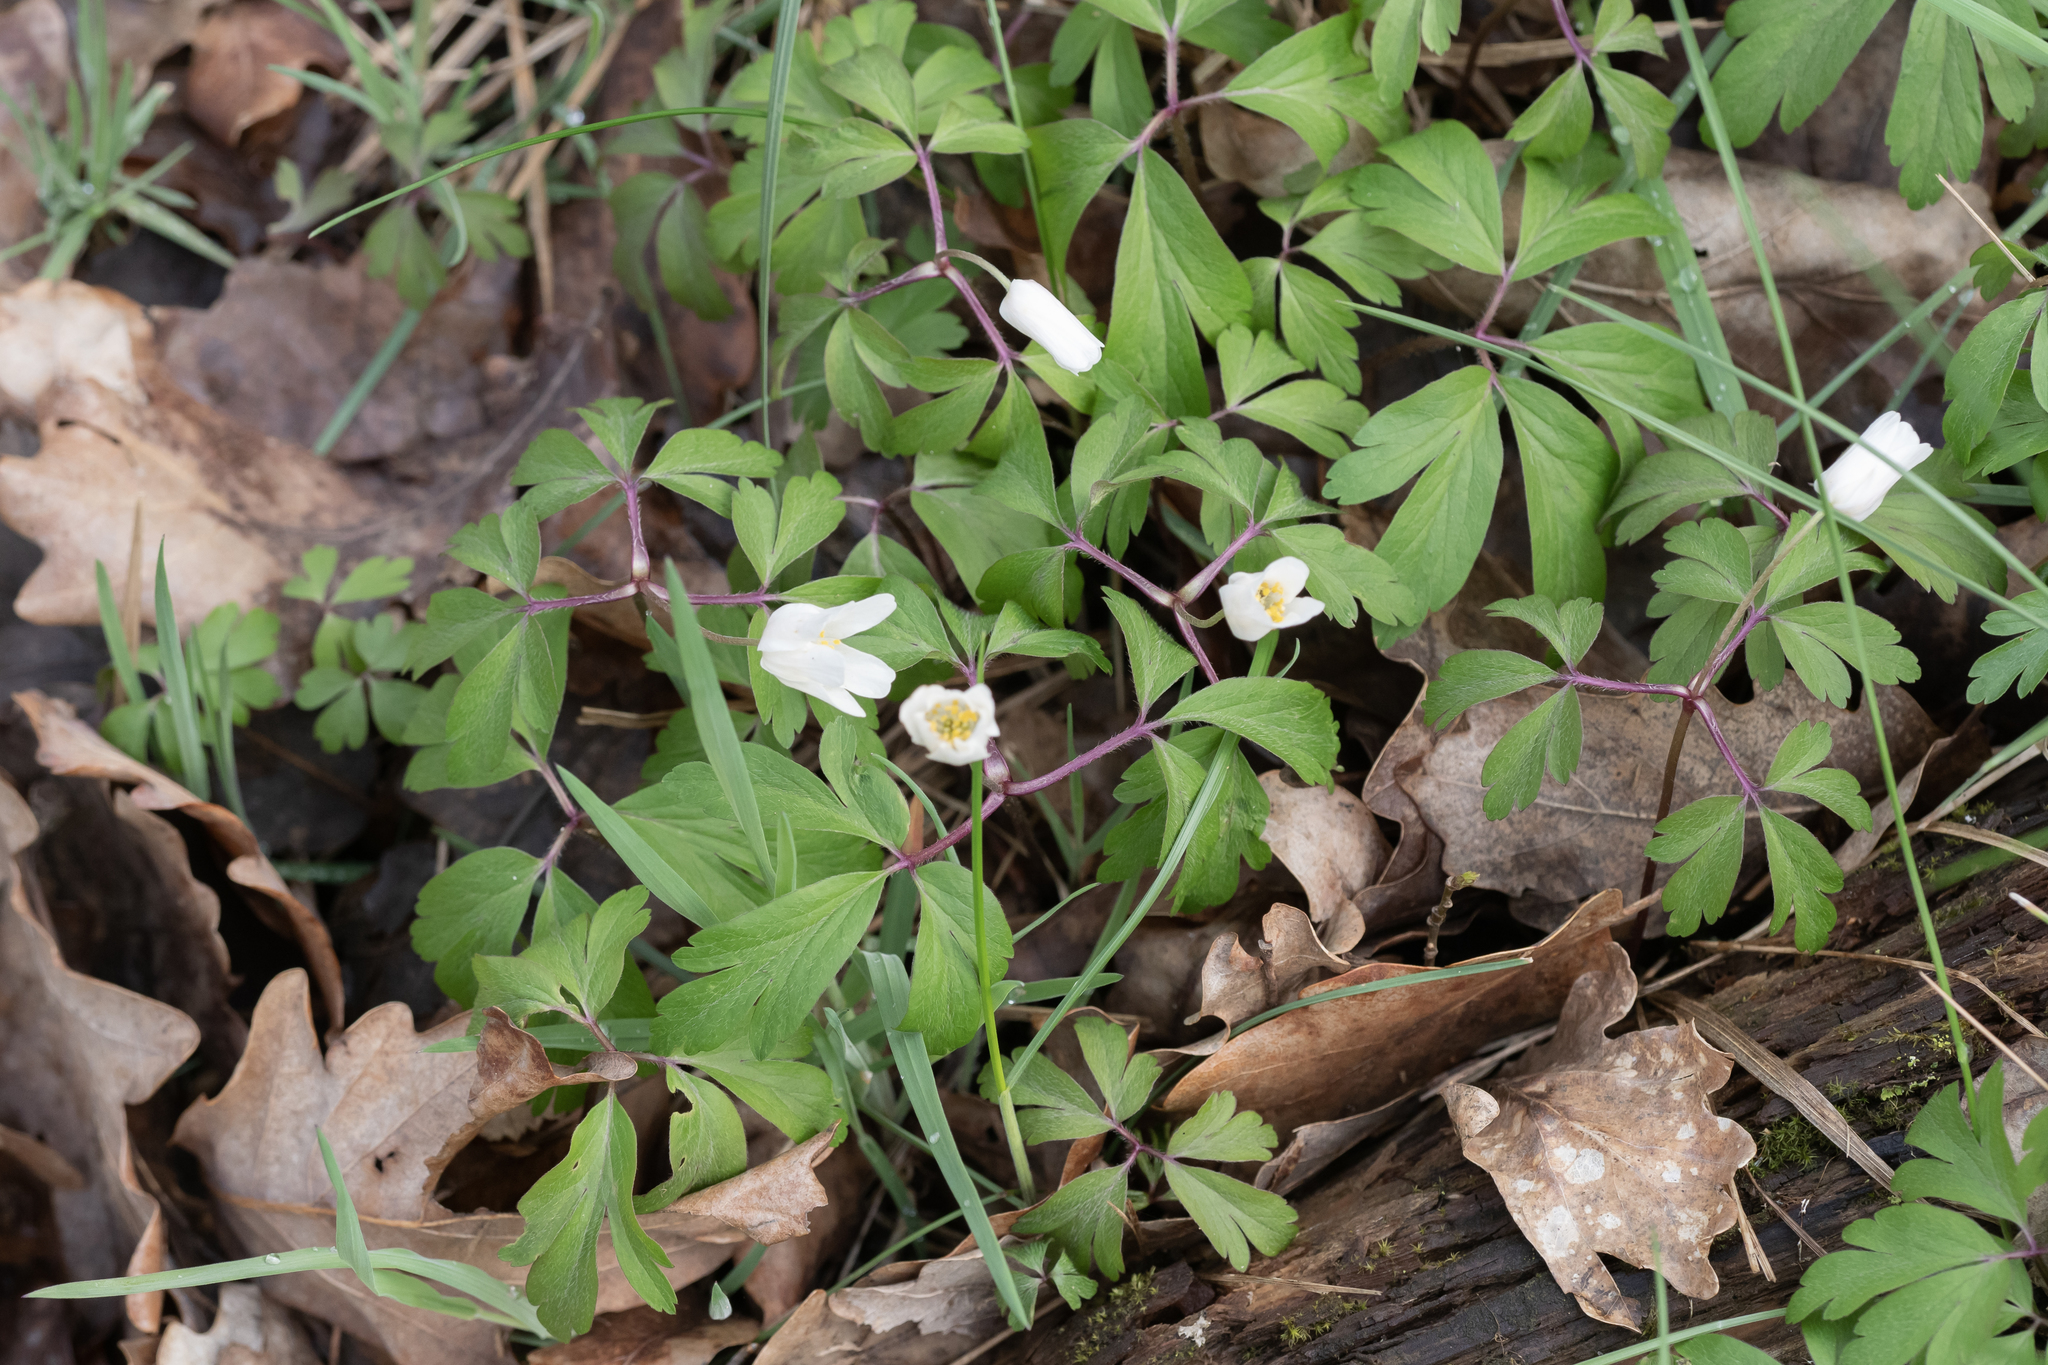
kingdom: Plantae
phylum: Tracheophyta
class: Magnoliopsida
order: Ranunculales
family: Ranunculaceae
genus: Anemone
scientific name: Anemone nemorosa
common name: Wood anemone
